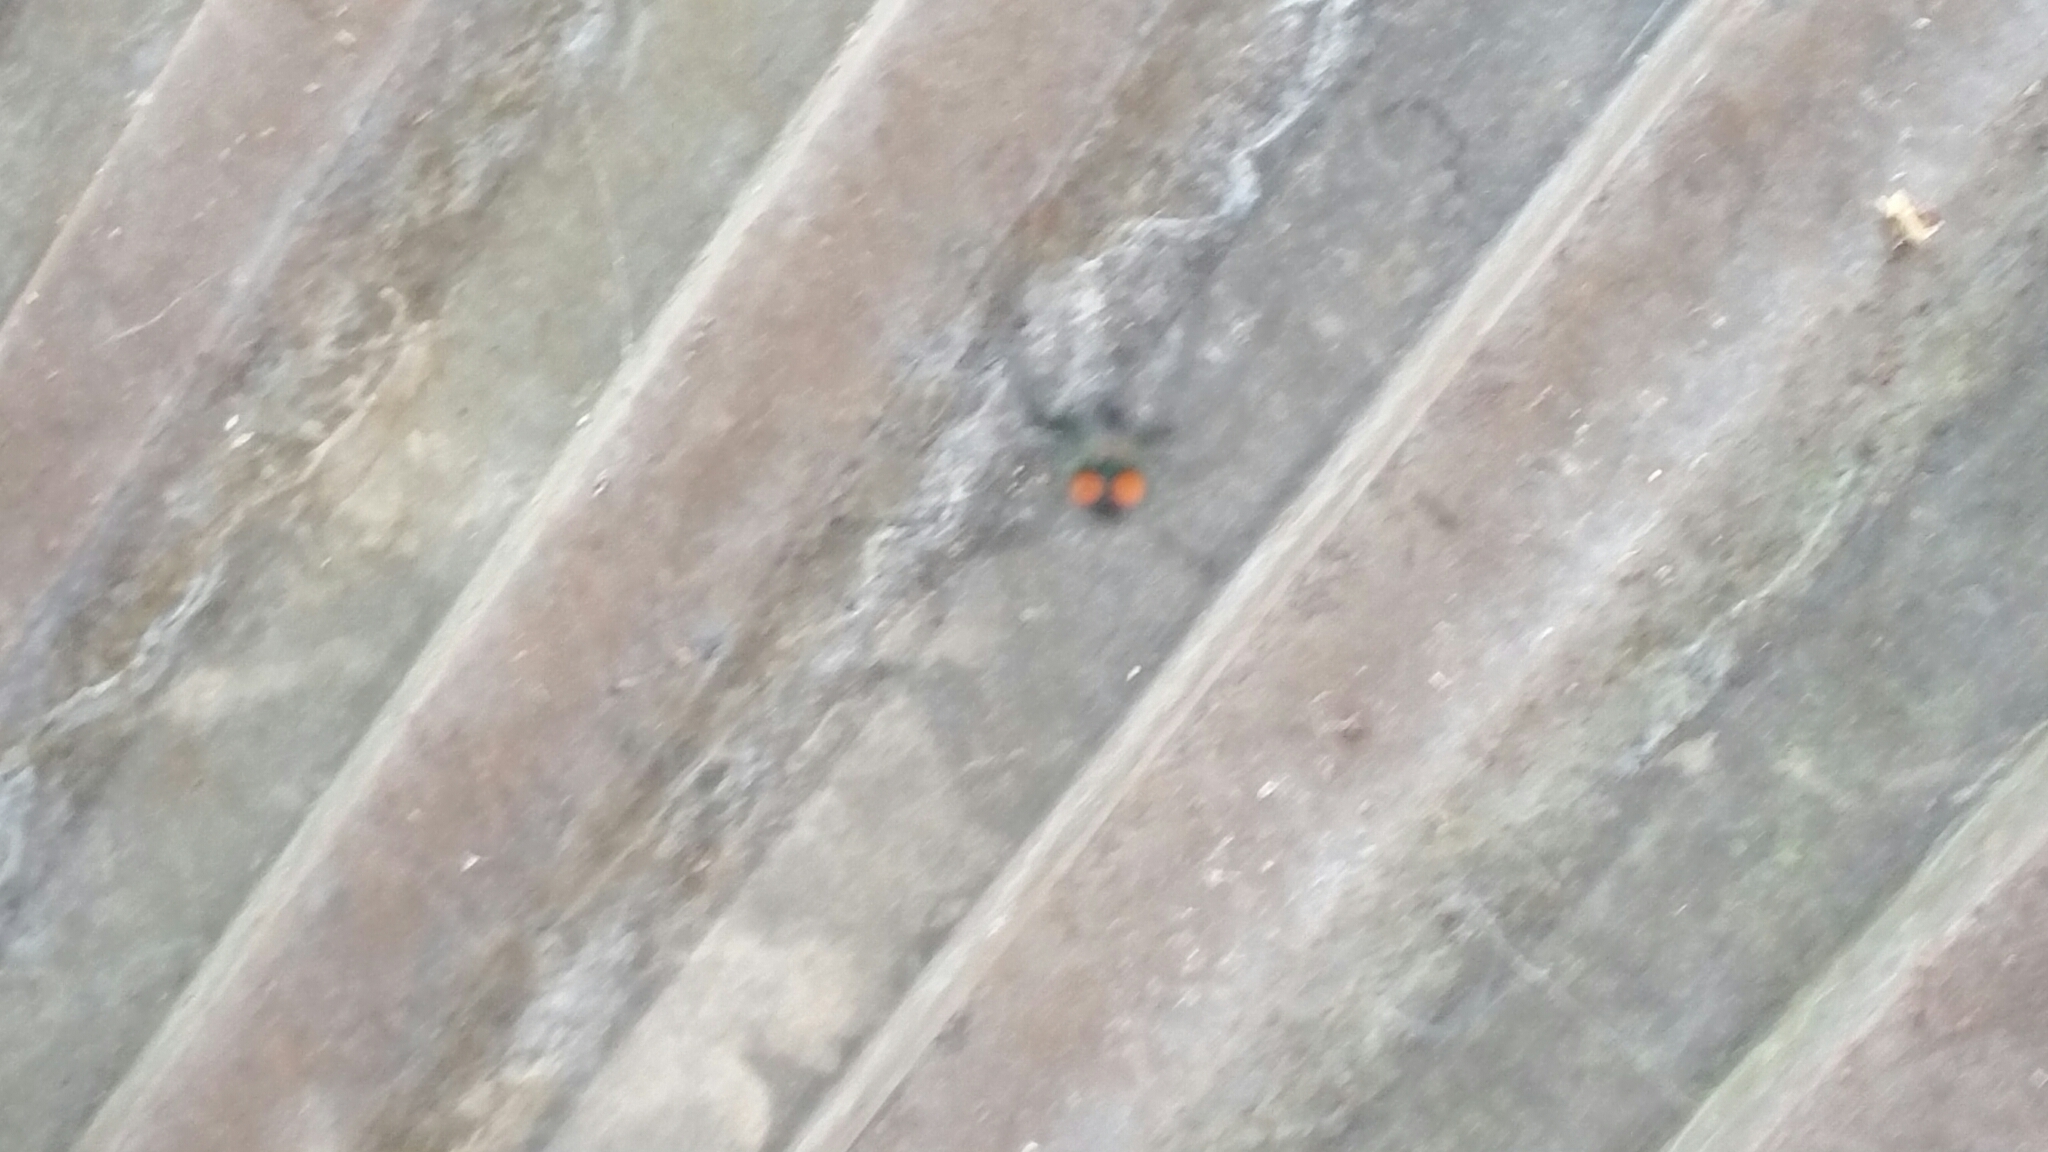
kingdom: Animalia
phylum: Arthropoda
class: Arachnida
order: Araneae
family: Tetragnathidae
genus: Leucauge
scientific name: Leucauge argyrobapta
